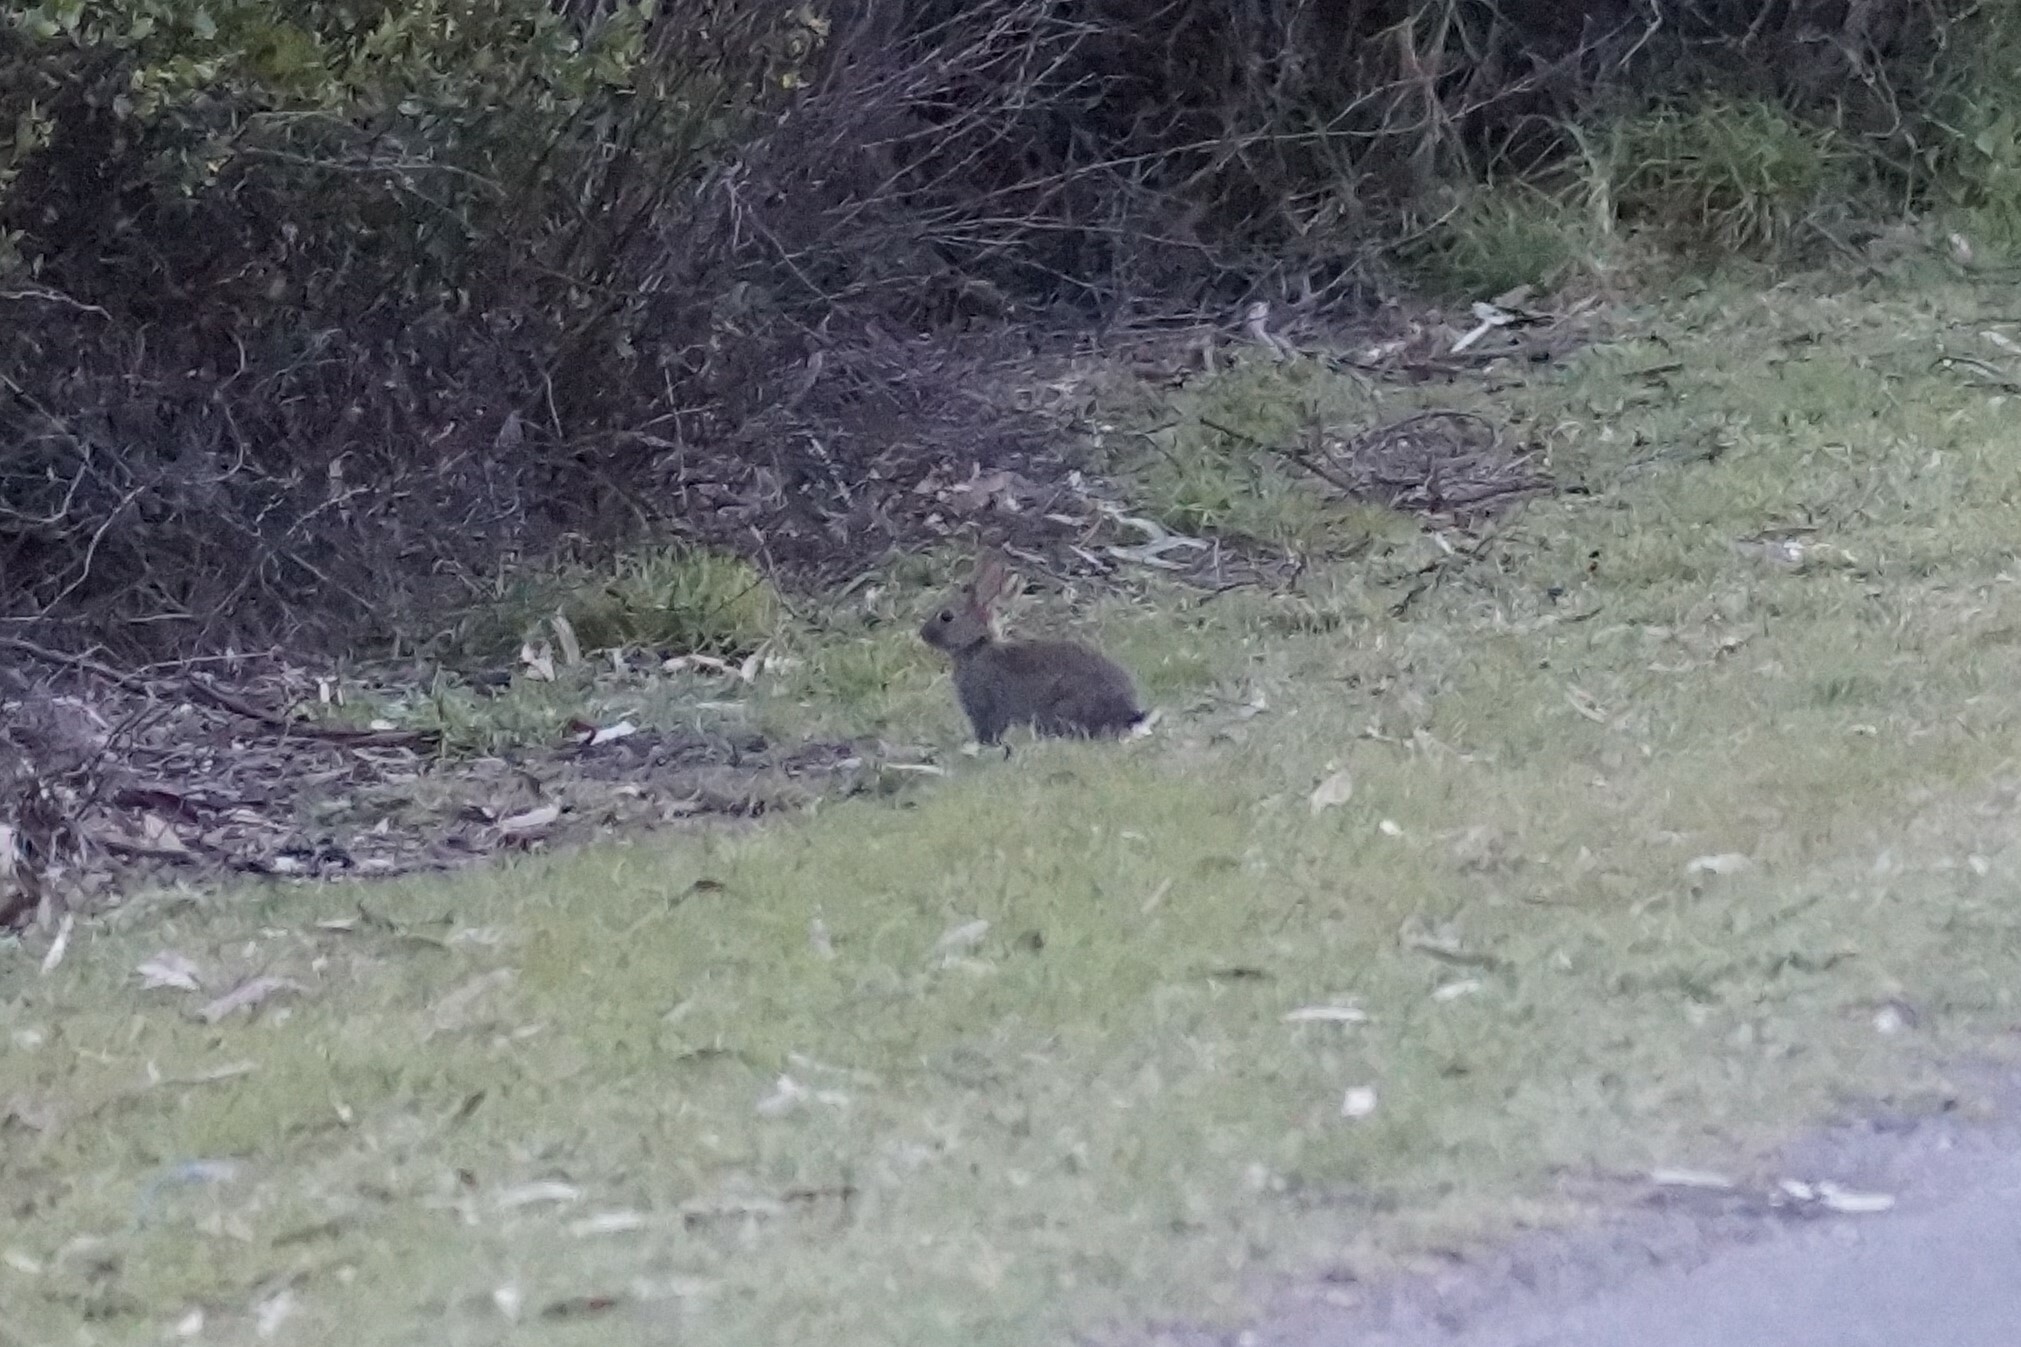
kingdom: Animalia
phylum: Chordata
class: Mammalia
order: Lagomorpha
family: Leporidae
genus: Oryctolagus
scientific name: Oryctolagus cuniculus
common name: European rabbit
